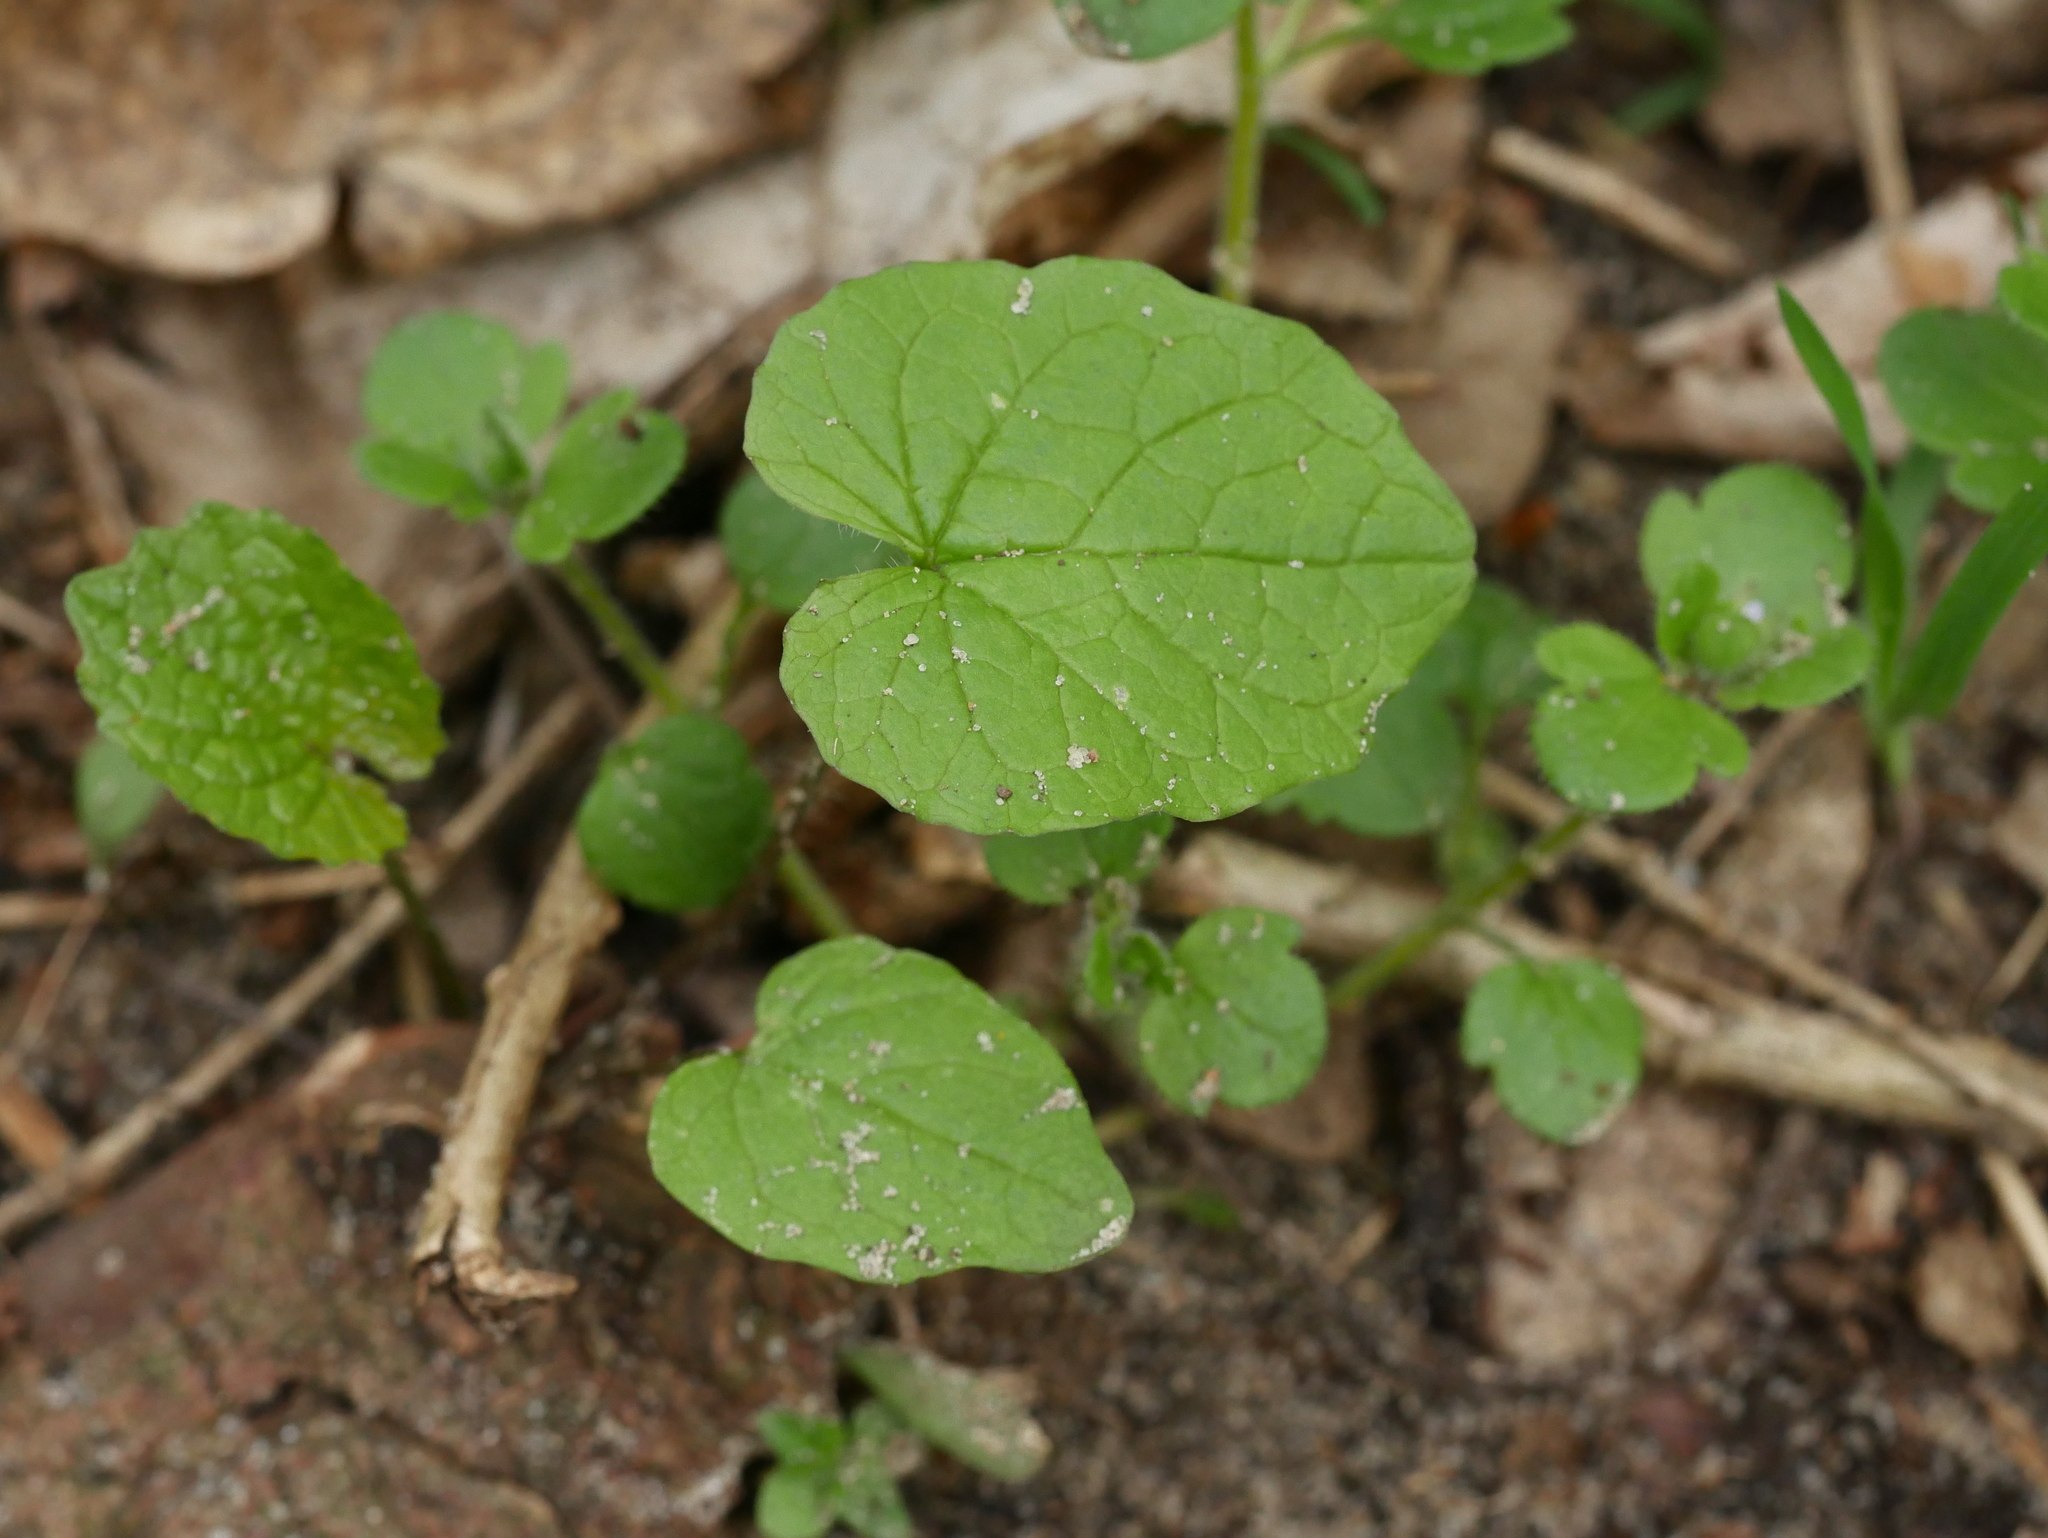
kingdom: Plantae
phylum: Tracheophyta
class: Magnoliopsida
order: Brassicales
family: Brassicaceae
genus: Alliaria
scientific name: Alliaria petiolata
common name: Garlic mustard
